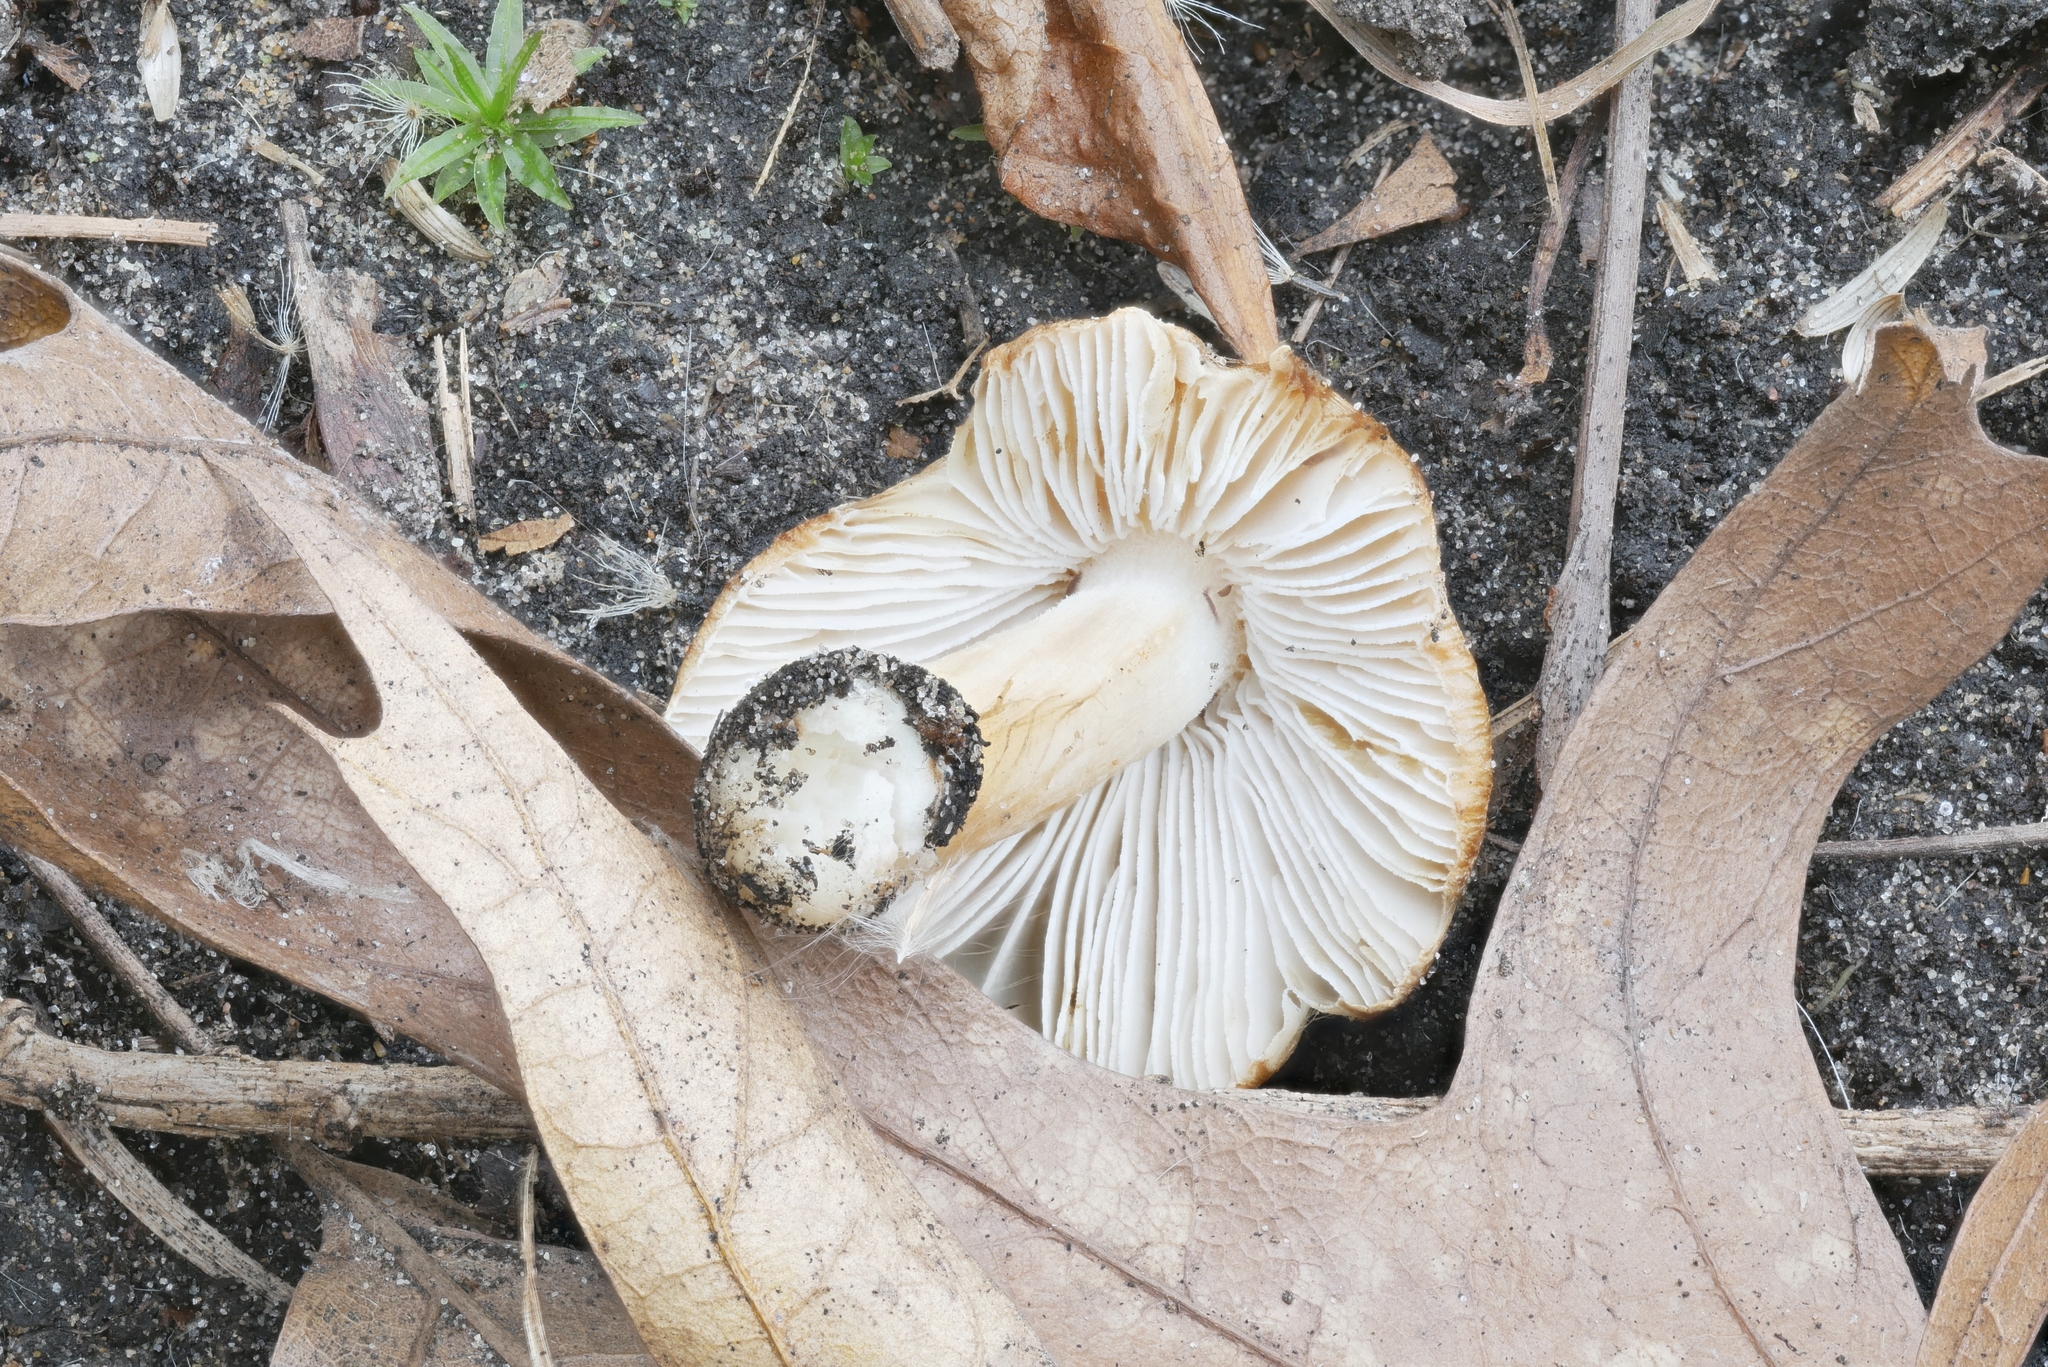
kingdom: Fungi
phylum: Basidiomycota
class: Agaricomycetes
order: Agaricales
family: Inocybaceae
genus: Inosperma
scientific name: Inosperma lanatodiscum
